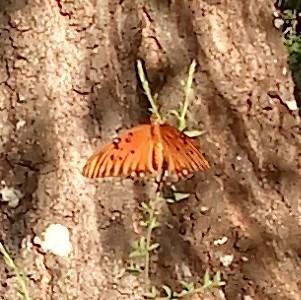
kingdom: Animalia
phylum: Arthropoda
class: Insecta
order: Lepidoptera
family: Nymphalidae
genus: Dione
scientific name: Dione vanillae
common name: Gulf fritillary
